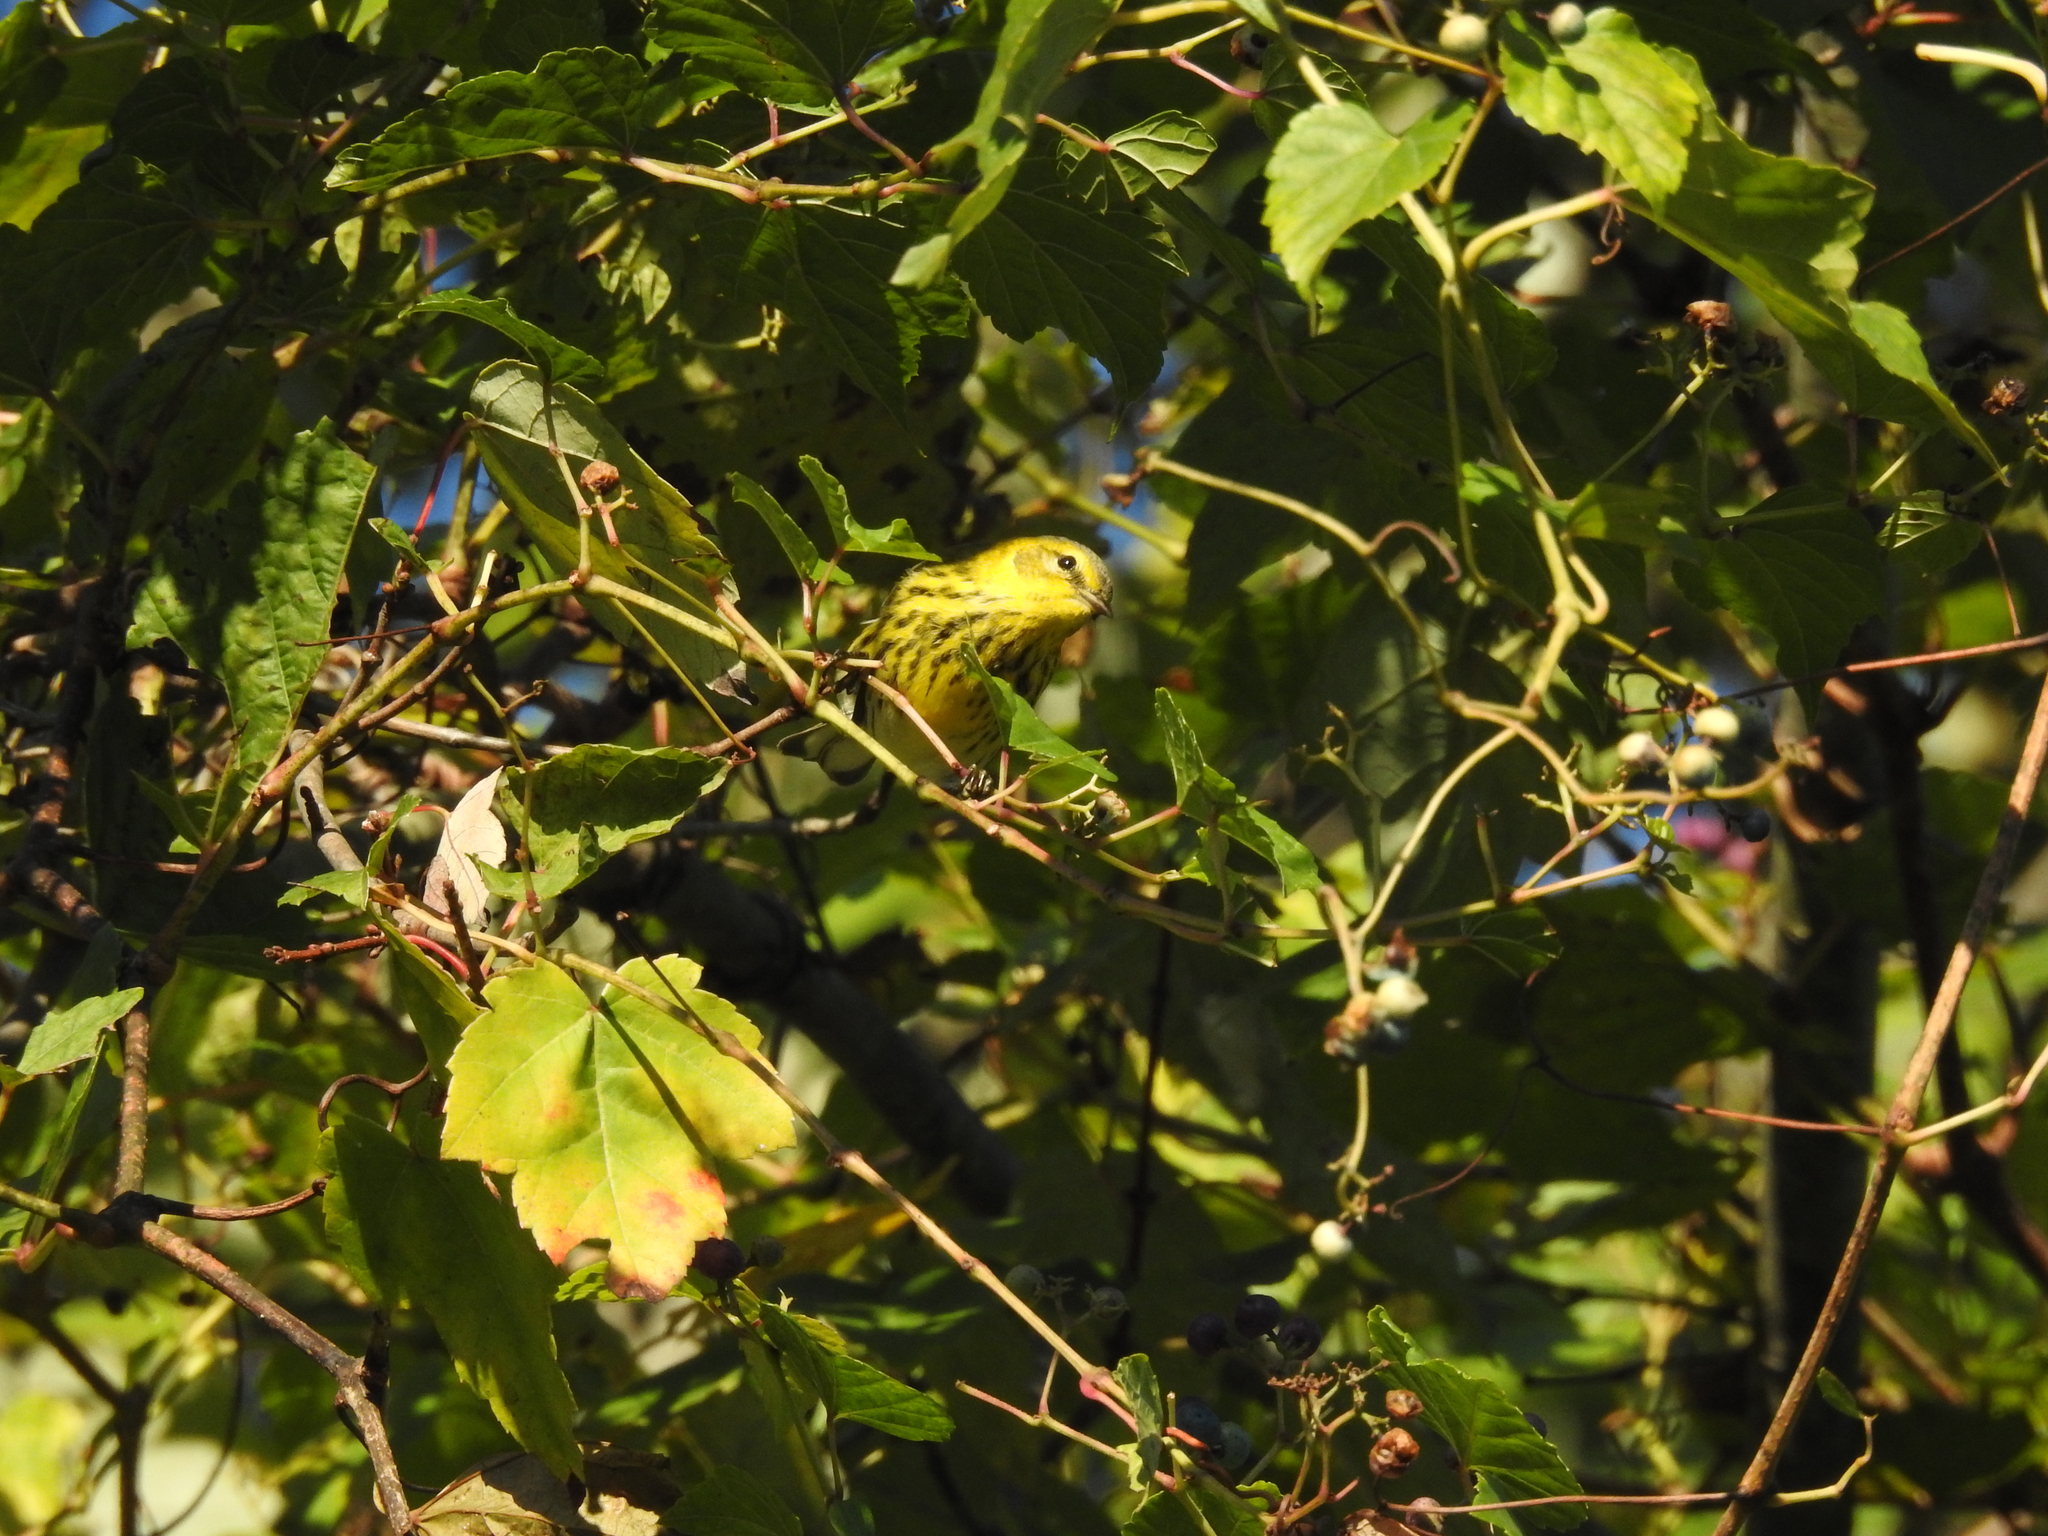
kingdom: Animalia
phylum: Chordata
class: Aves
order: Passeriformes
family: Parulidae
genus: Setophaga
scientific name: Setophaga tigrina
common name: Cape may warbler
